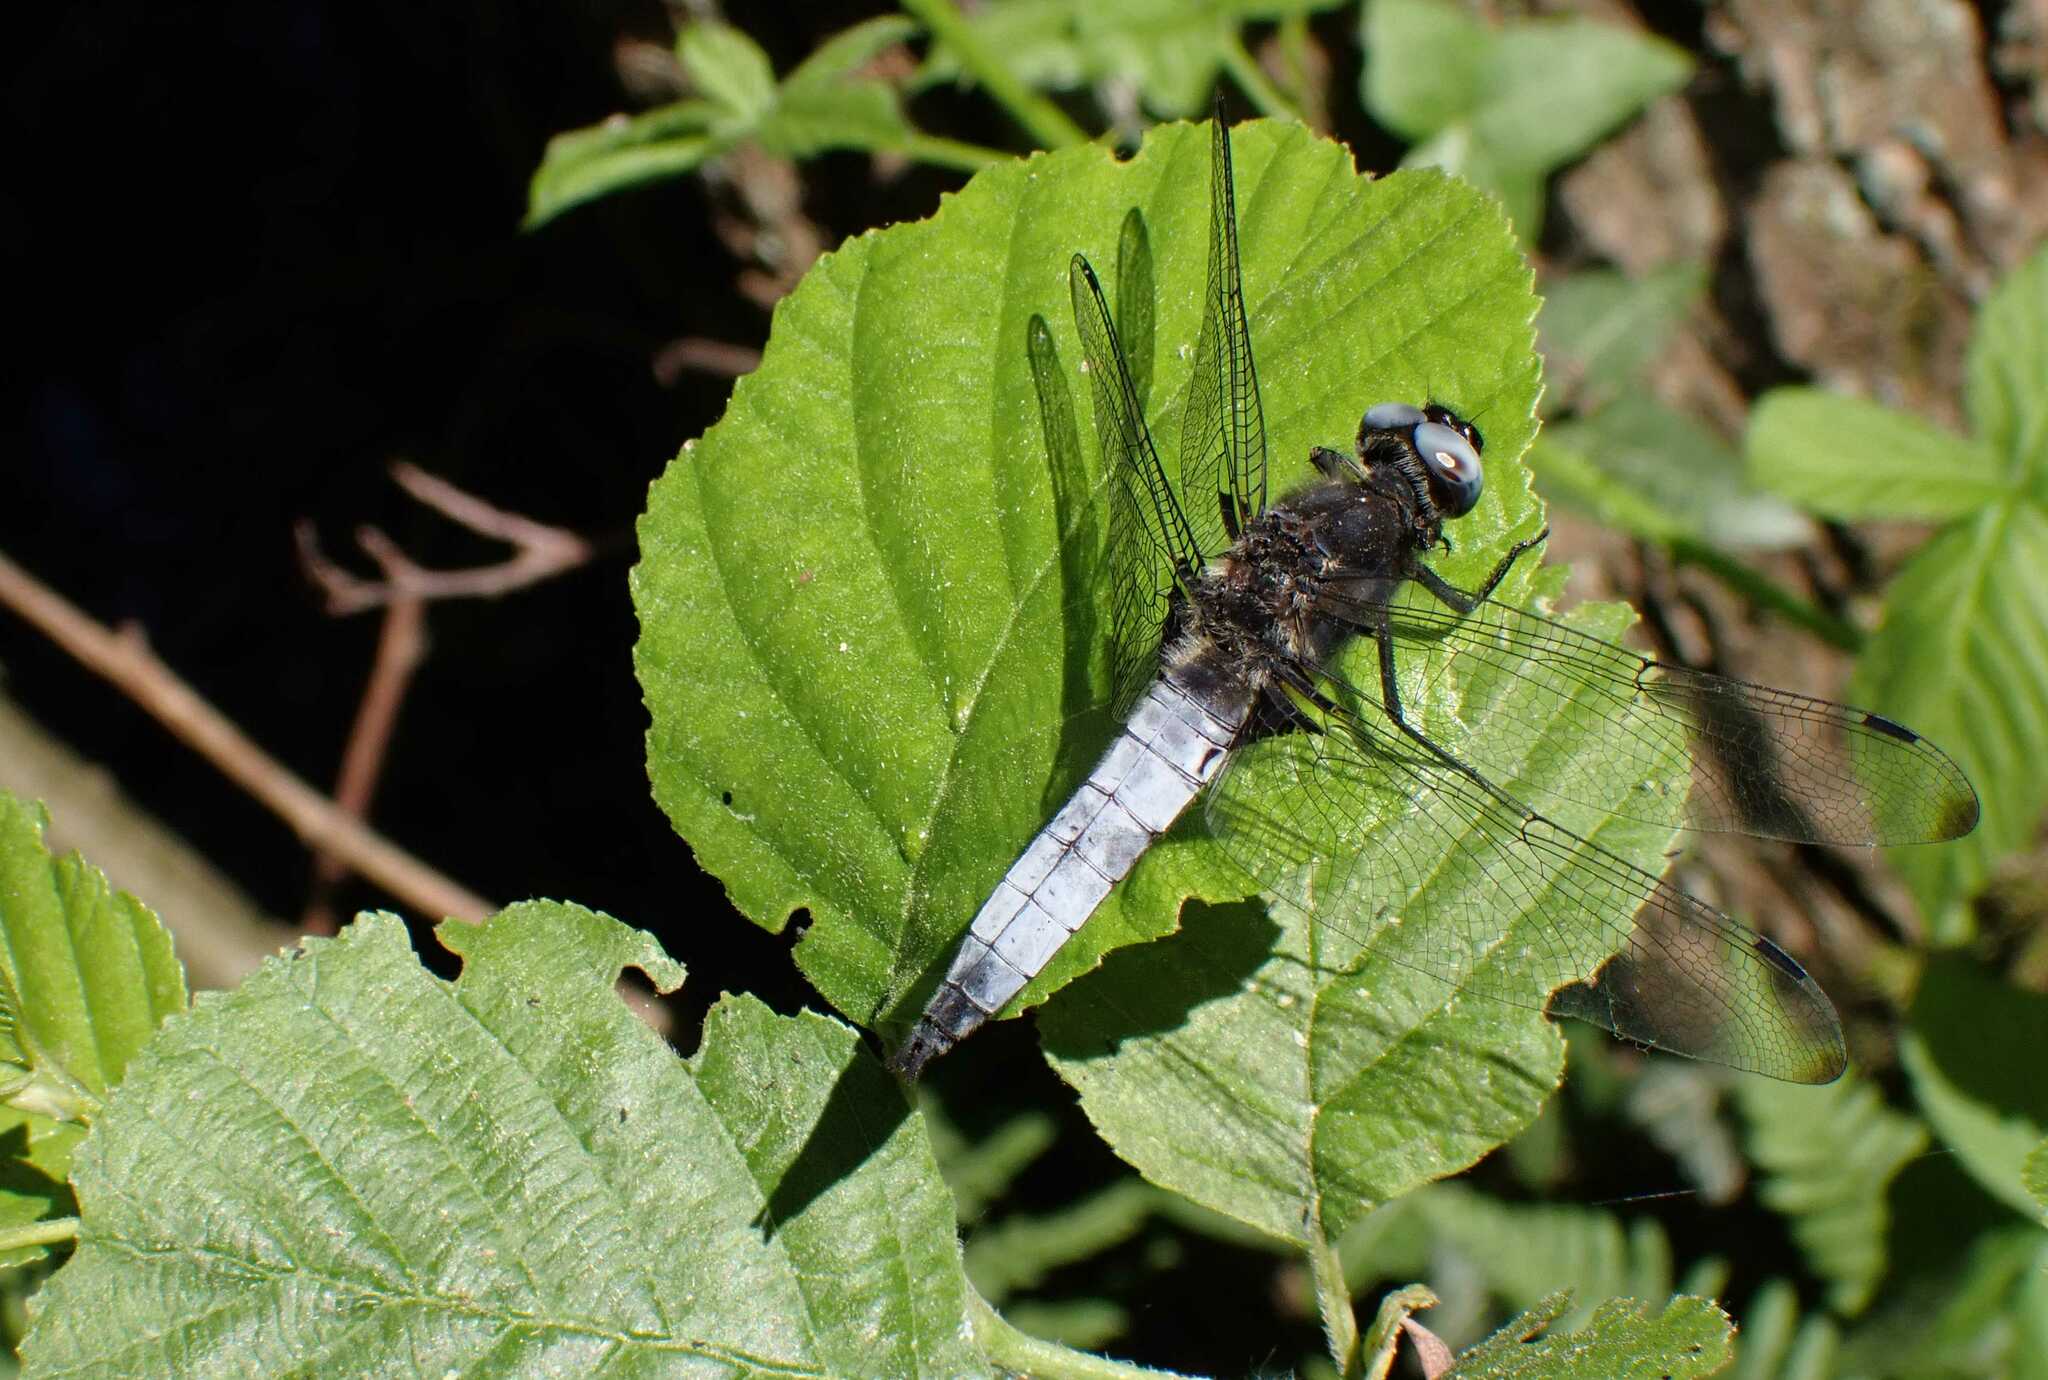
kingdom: Animalia
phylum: Arthropoda
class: Insecta
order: Odonata
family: Libellulidae
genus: Libellula
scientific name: Libellula fulva
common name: Blue chaser
